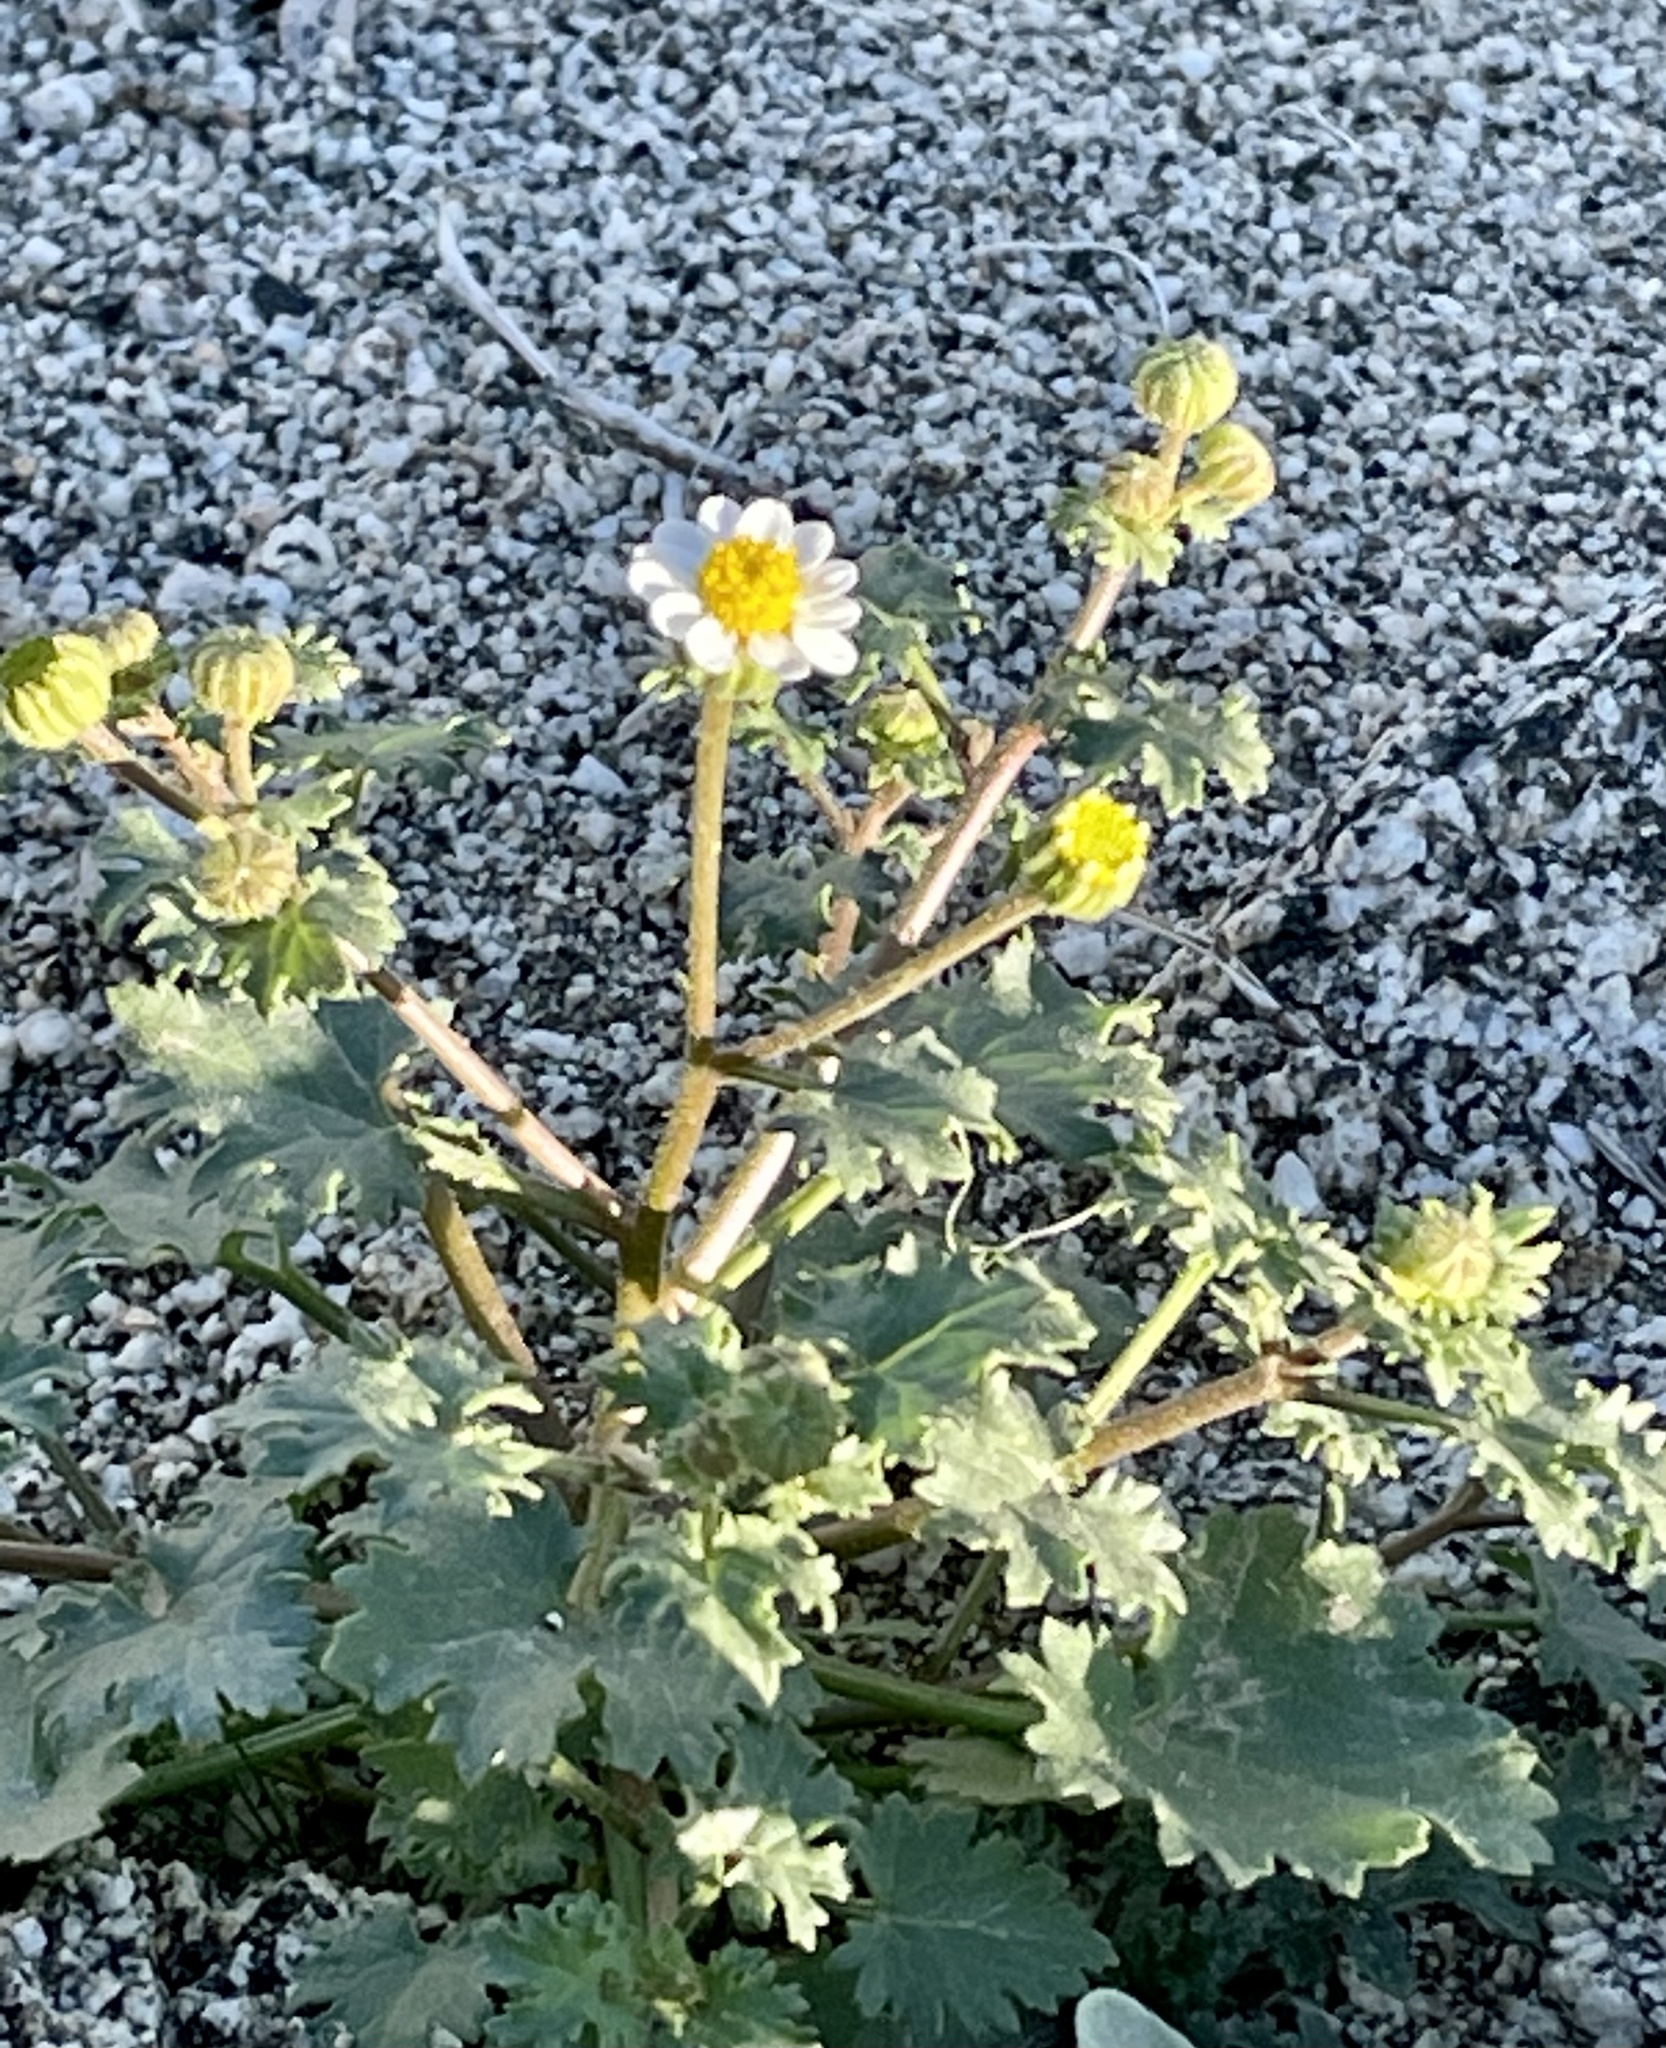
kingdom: Plantae
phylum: Tracheophyta
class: Magnoliopsida
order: Asterales
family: Asteraceae
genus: Laphamia
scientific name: Laphamia emoryi
